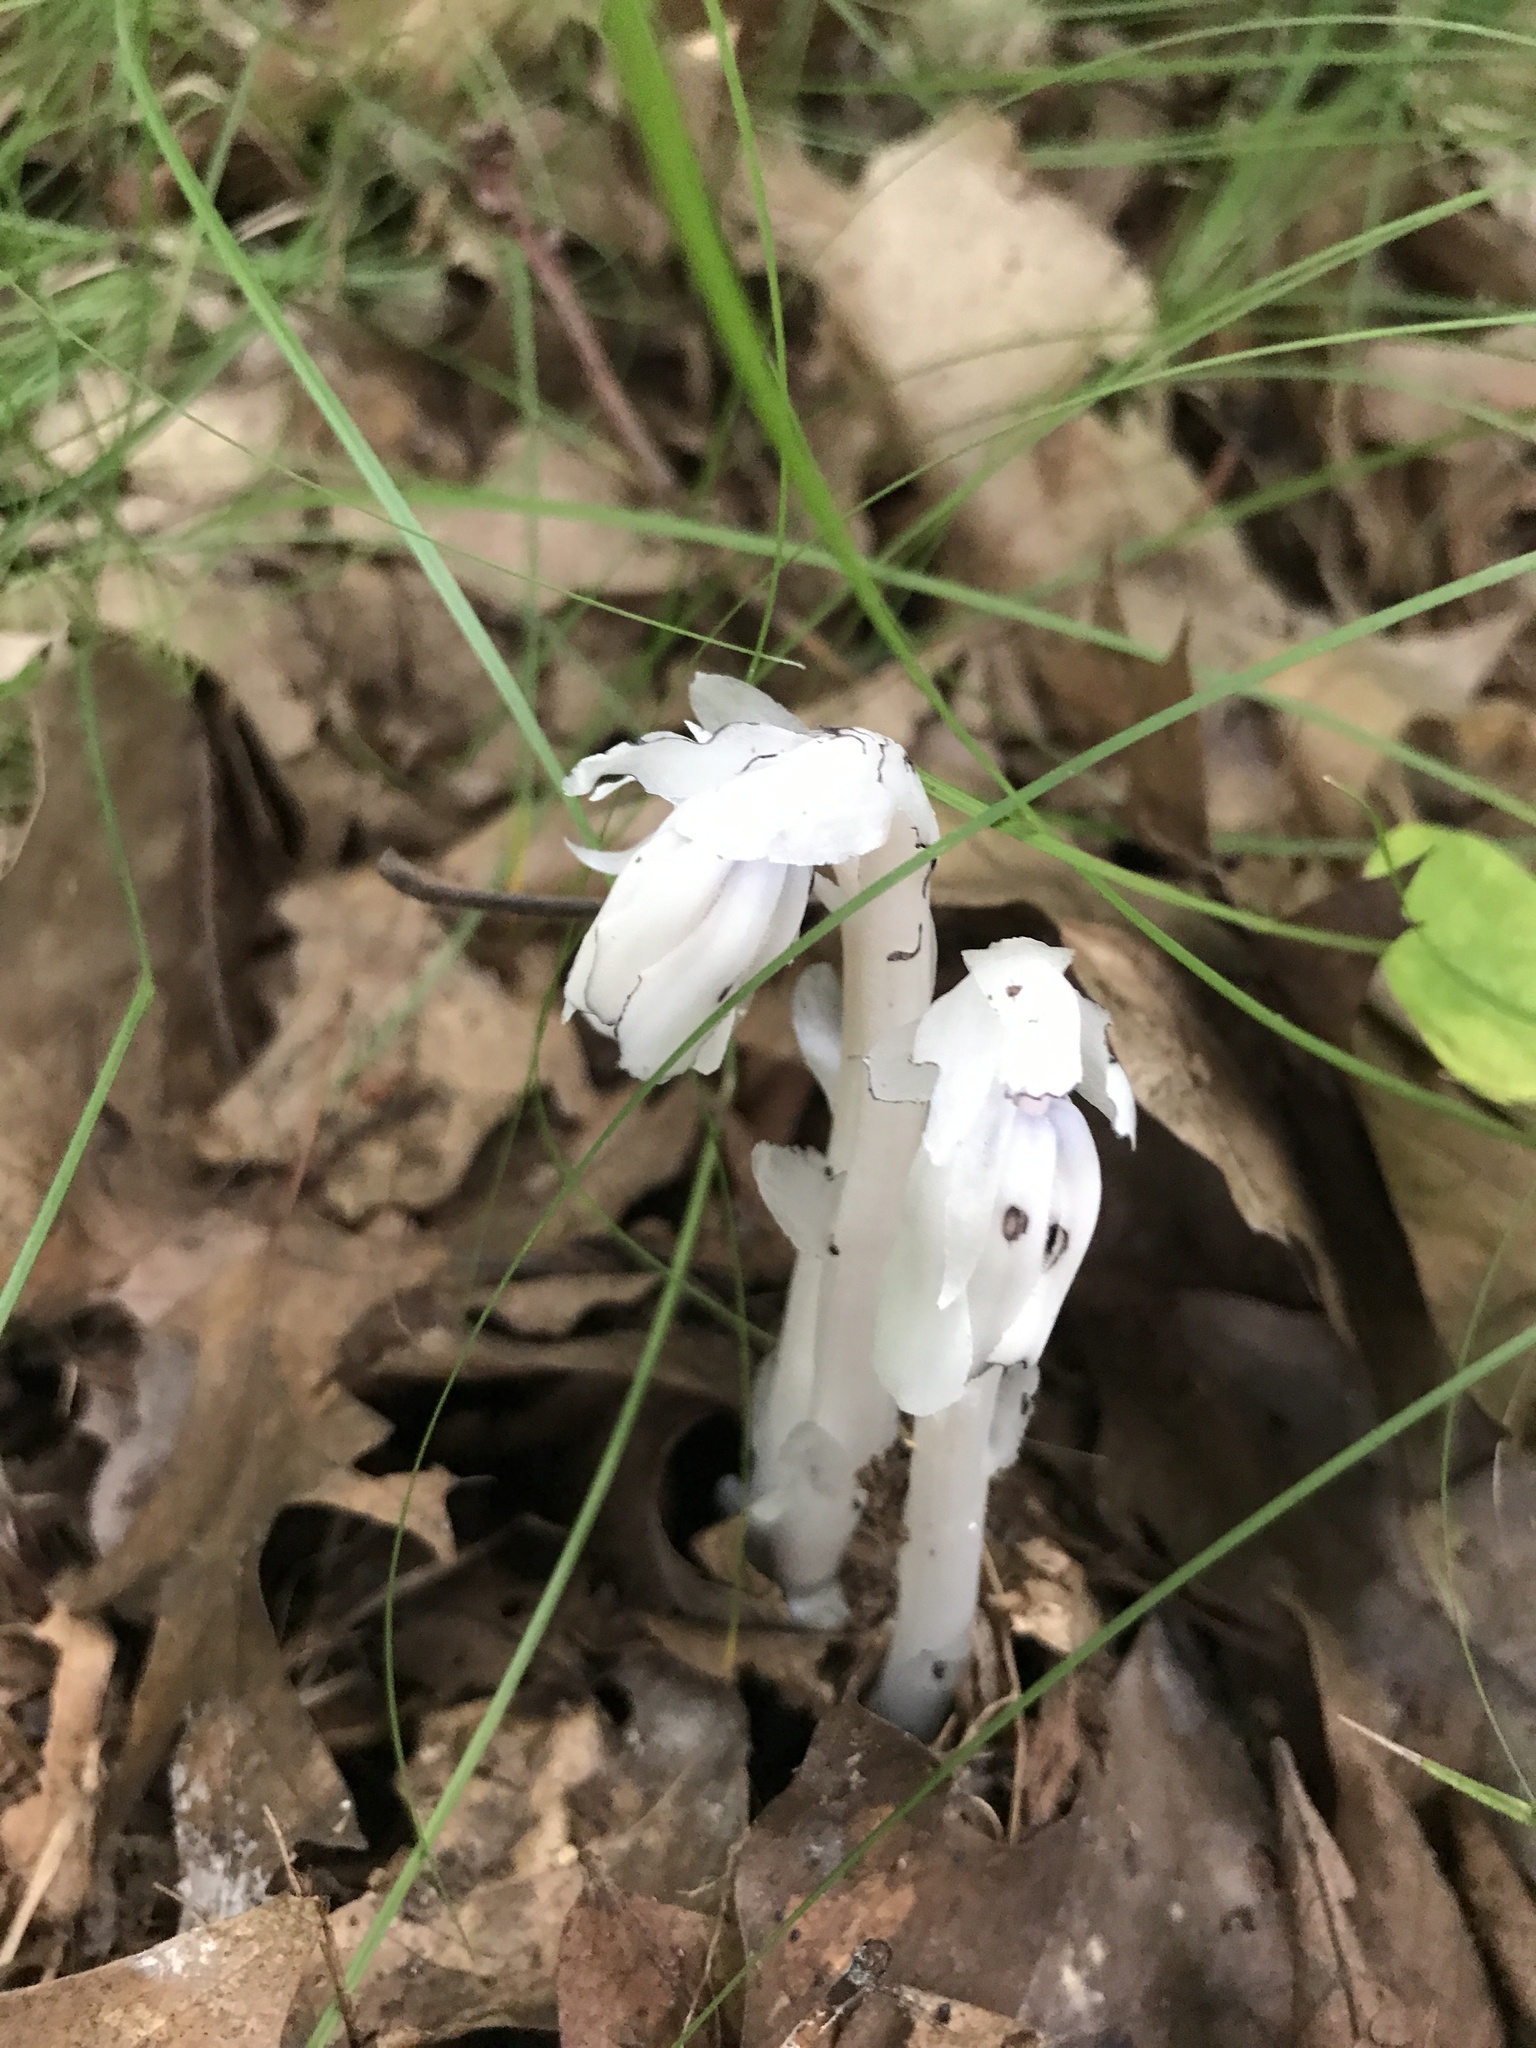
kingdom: Plantae
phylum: Tracheophyta
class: Magnoliopsida
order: Ericales
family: Ericaceae
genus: Monotropa
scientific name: Monotropa uniflora
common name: Convulsion root
